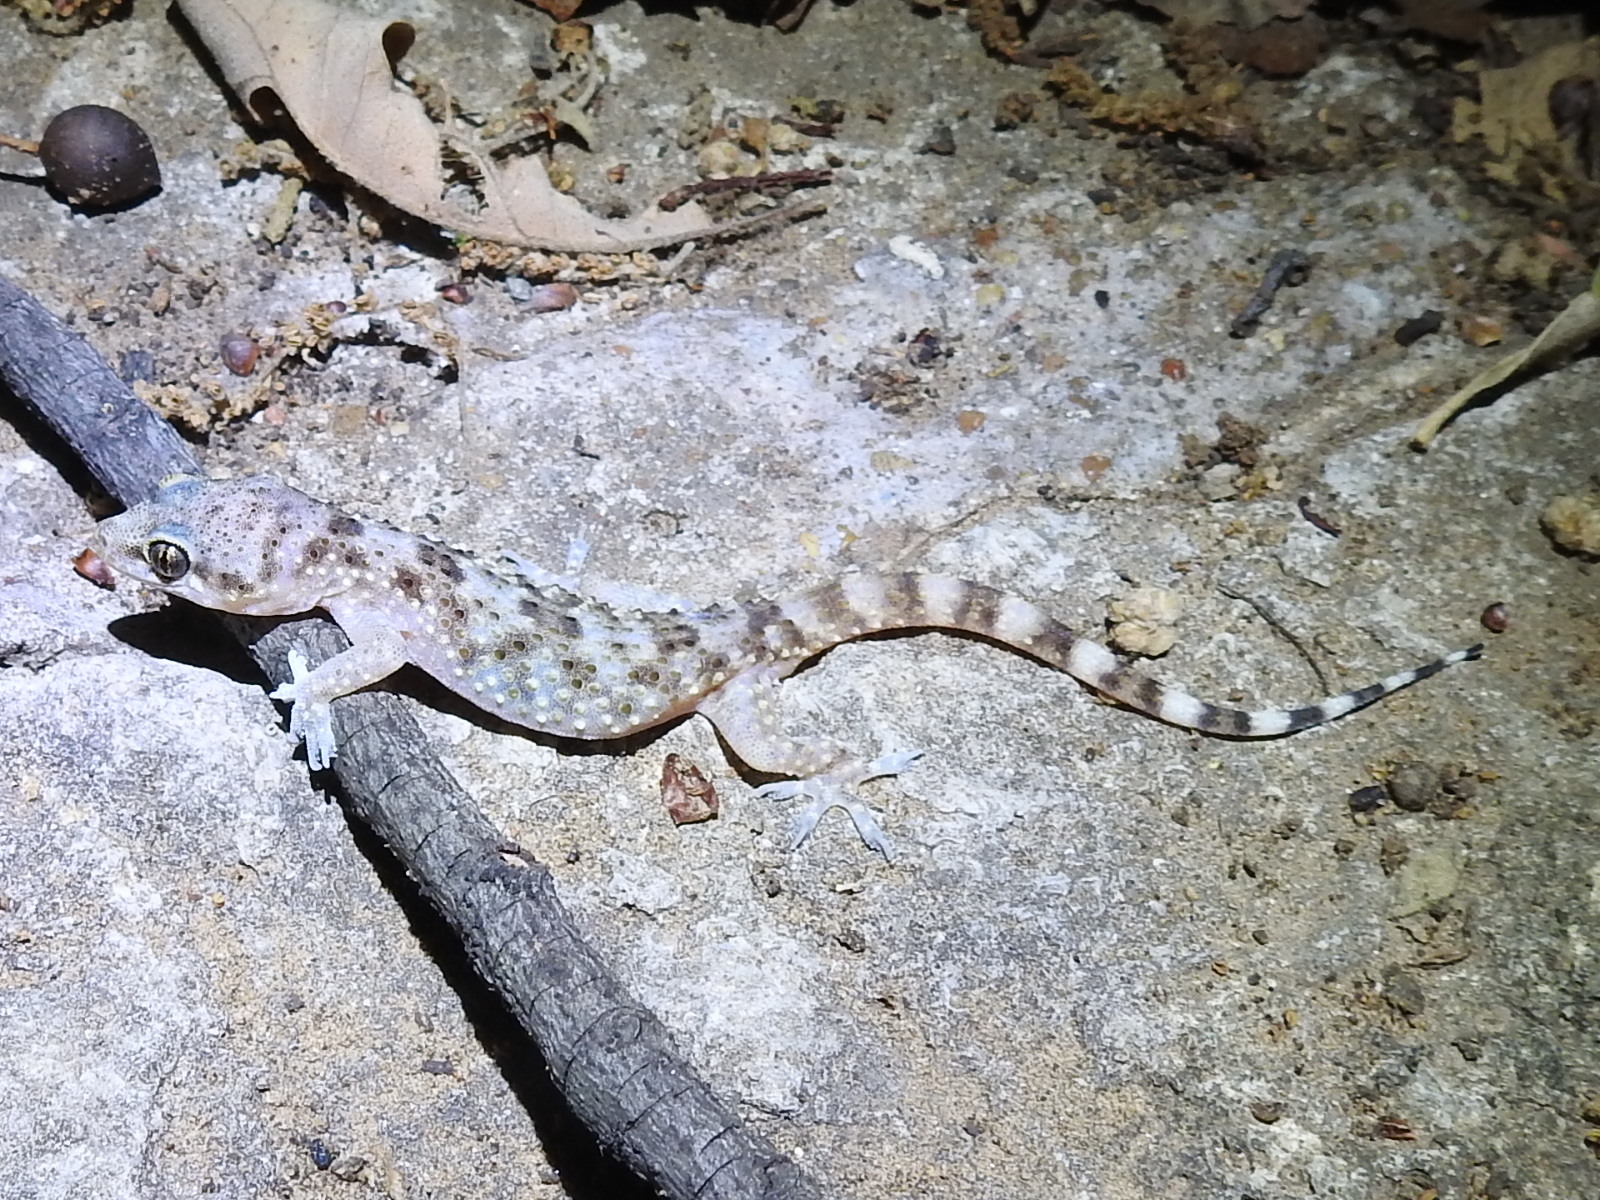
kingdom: Animalia
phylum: Chordata
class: Squamata
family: Gekkonidae
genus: Hemidactylus
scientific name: Hemidactylus turcicus
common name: Turkish gecko
